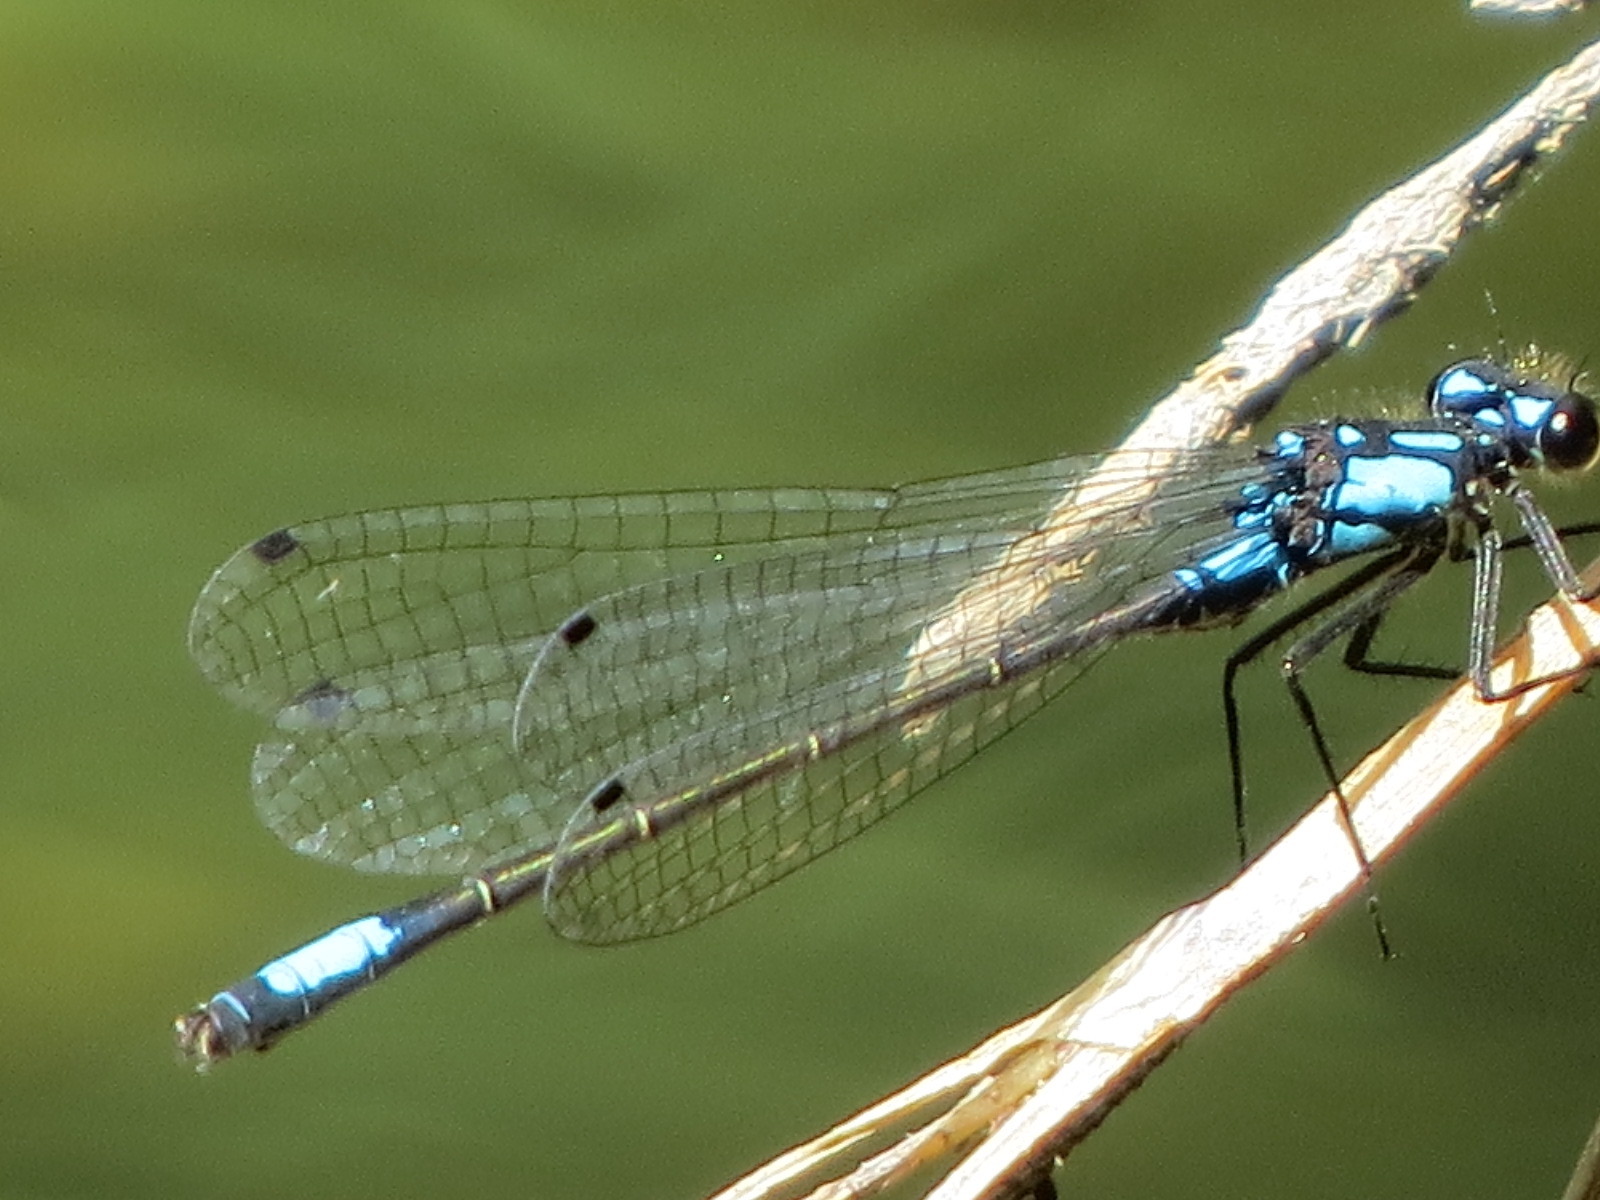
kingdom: Animalia
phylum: Arthropoda
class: Insecta
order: Odonata
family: Coenagrionidae
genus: Zoniagrion
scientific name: Zoniagrion exclamationis
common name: Exclamation damsel
